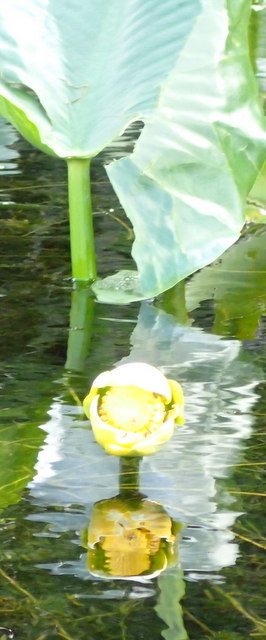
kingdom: Plantae
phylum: Tracheophyta
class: Magnoliopsida
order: Nymphaeales
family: Nymphaeaceae
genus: Nuphar
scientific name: Nuphar advena
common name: Spatter-dock
